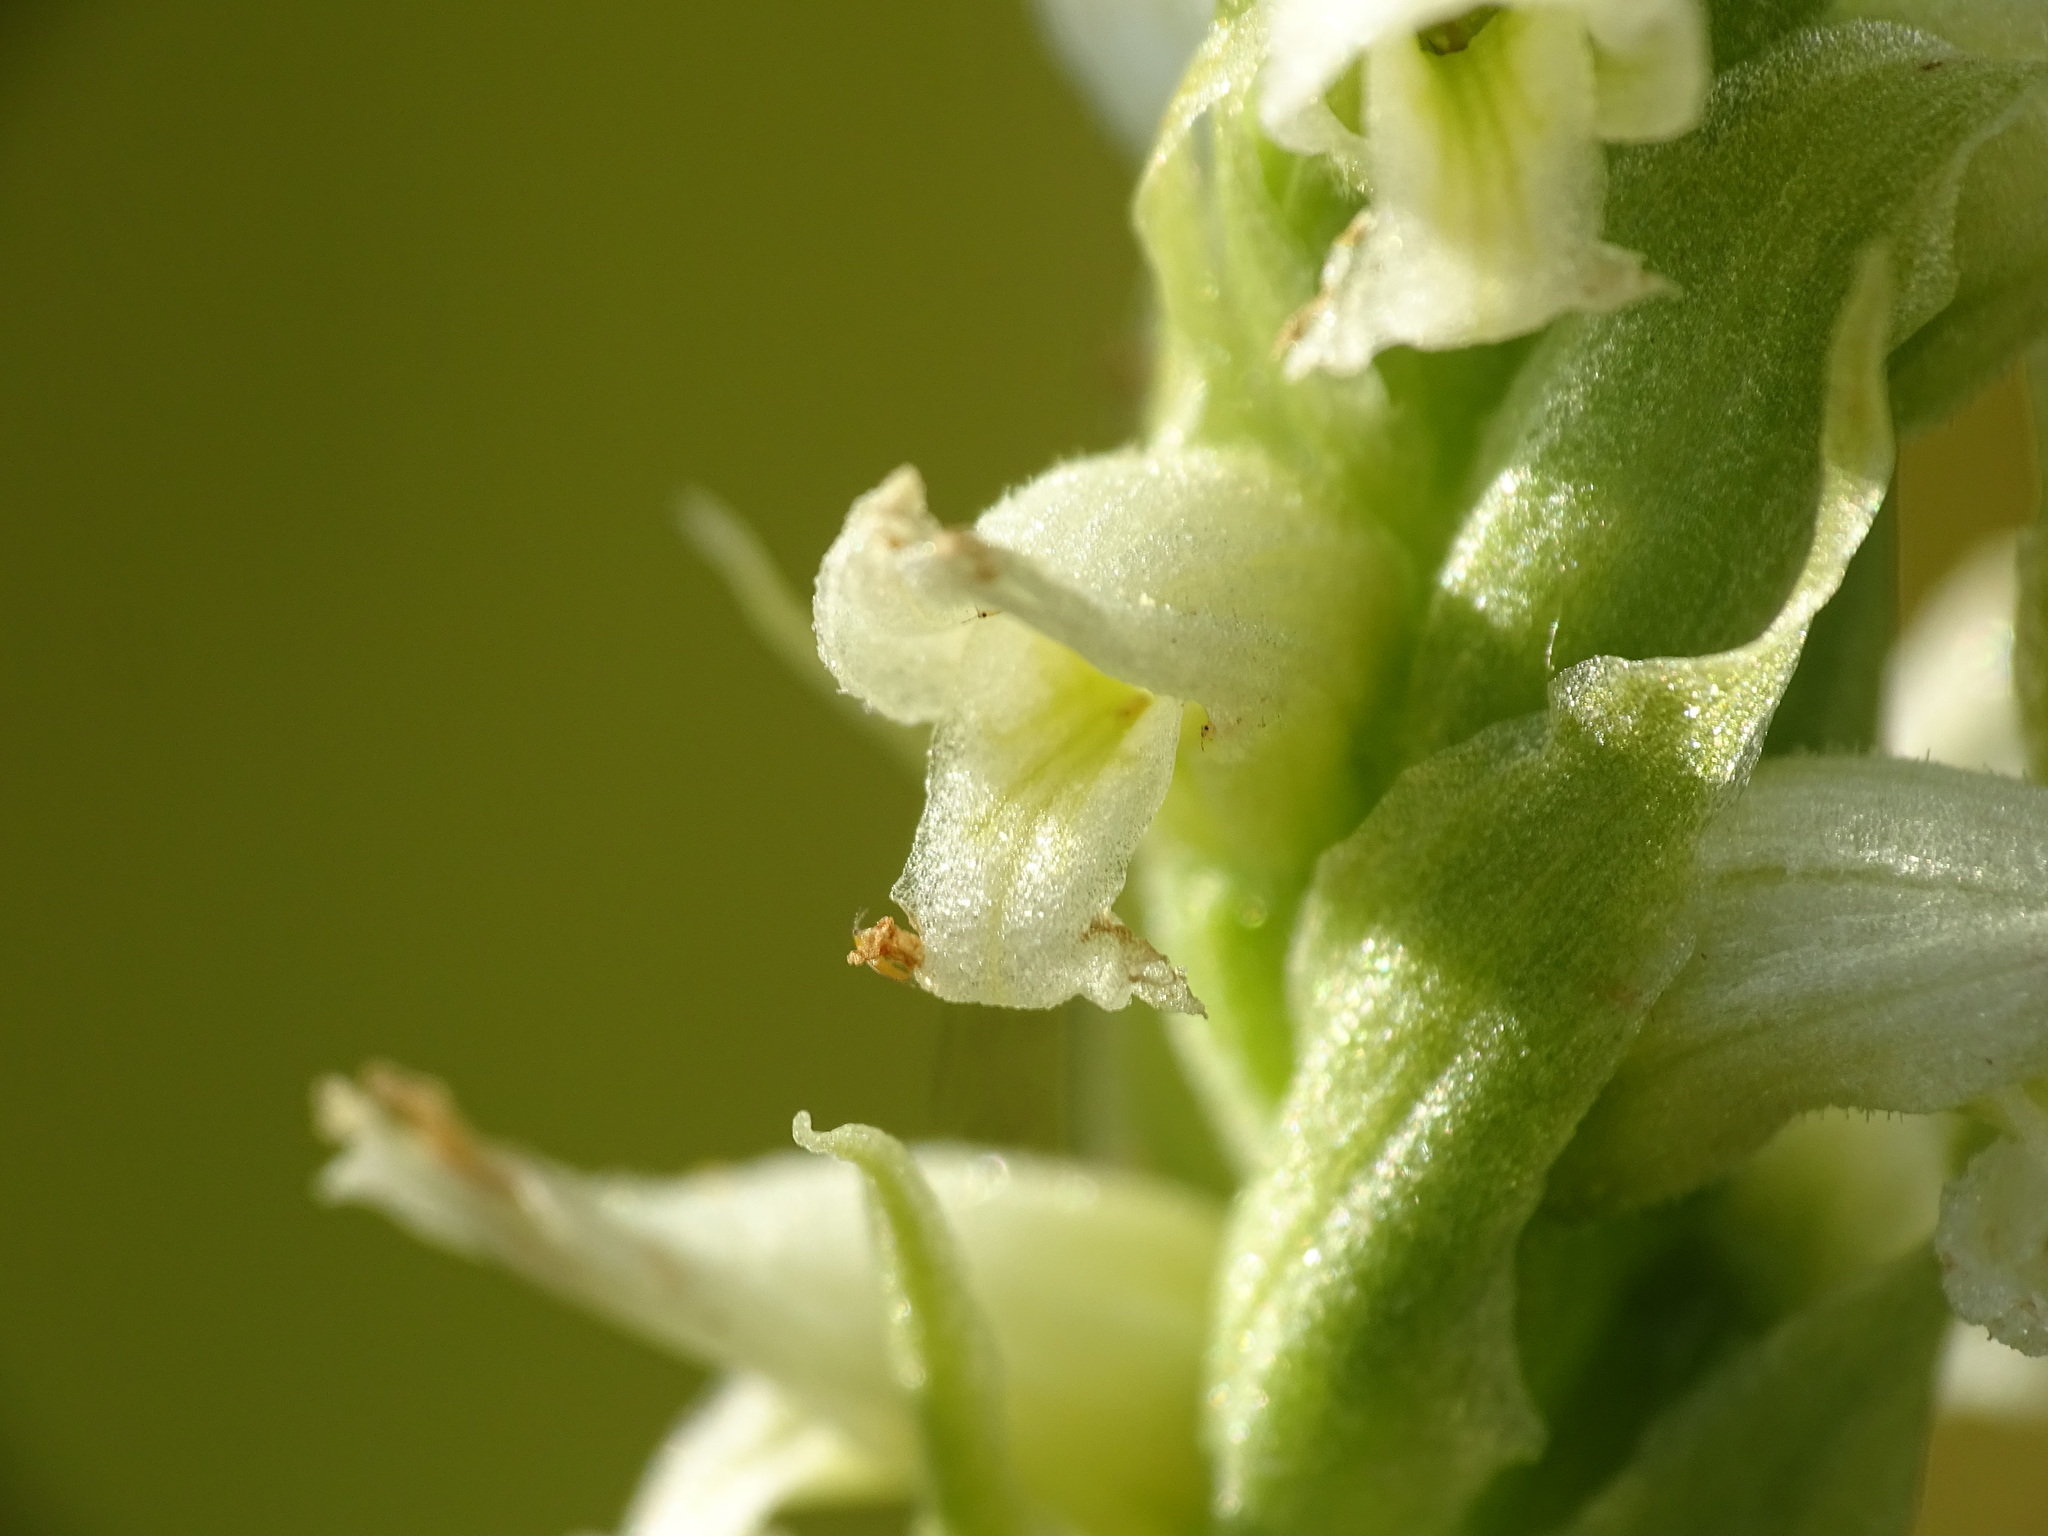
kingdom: Plantae
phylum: Tracheophyta
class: Liliopsida
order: Asparagales
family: Orchidaceae
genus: Spiranthes
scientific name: Spiranthes romanzoffiana
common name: Irish lady's-tresses
